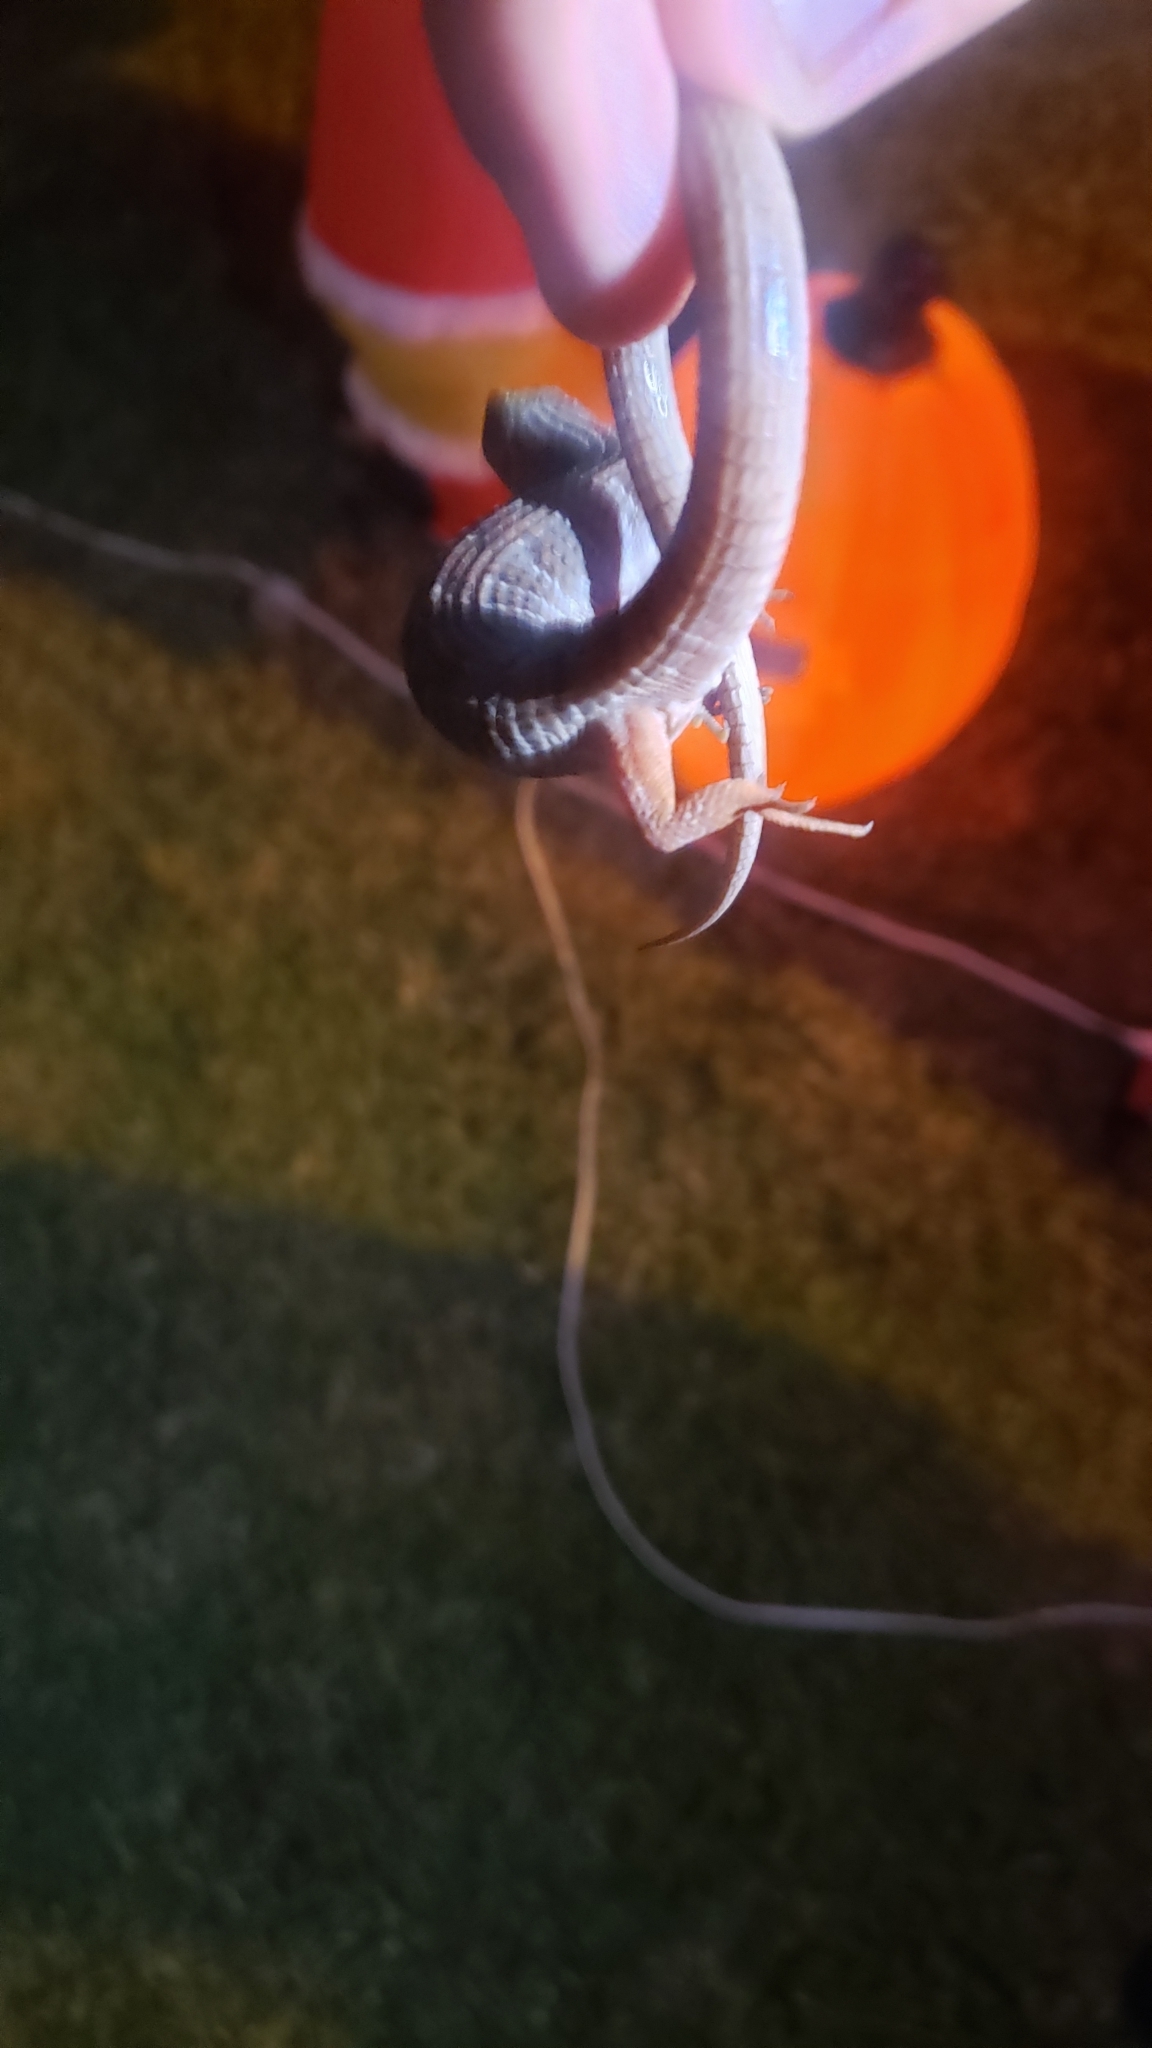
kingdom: Animalia
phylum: Chordata
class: Squamata
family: Anguidae
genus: Elgaria
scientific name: Elgaria multicarinata
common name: Southern alligator lizard
